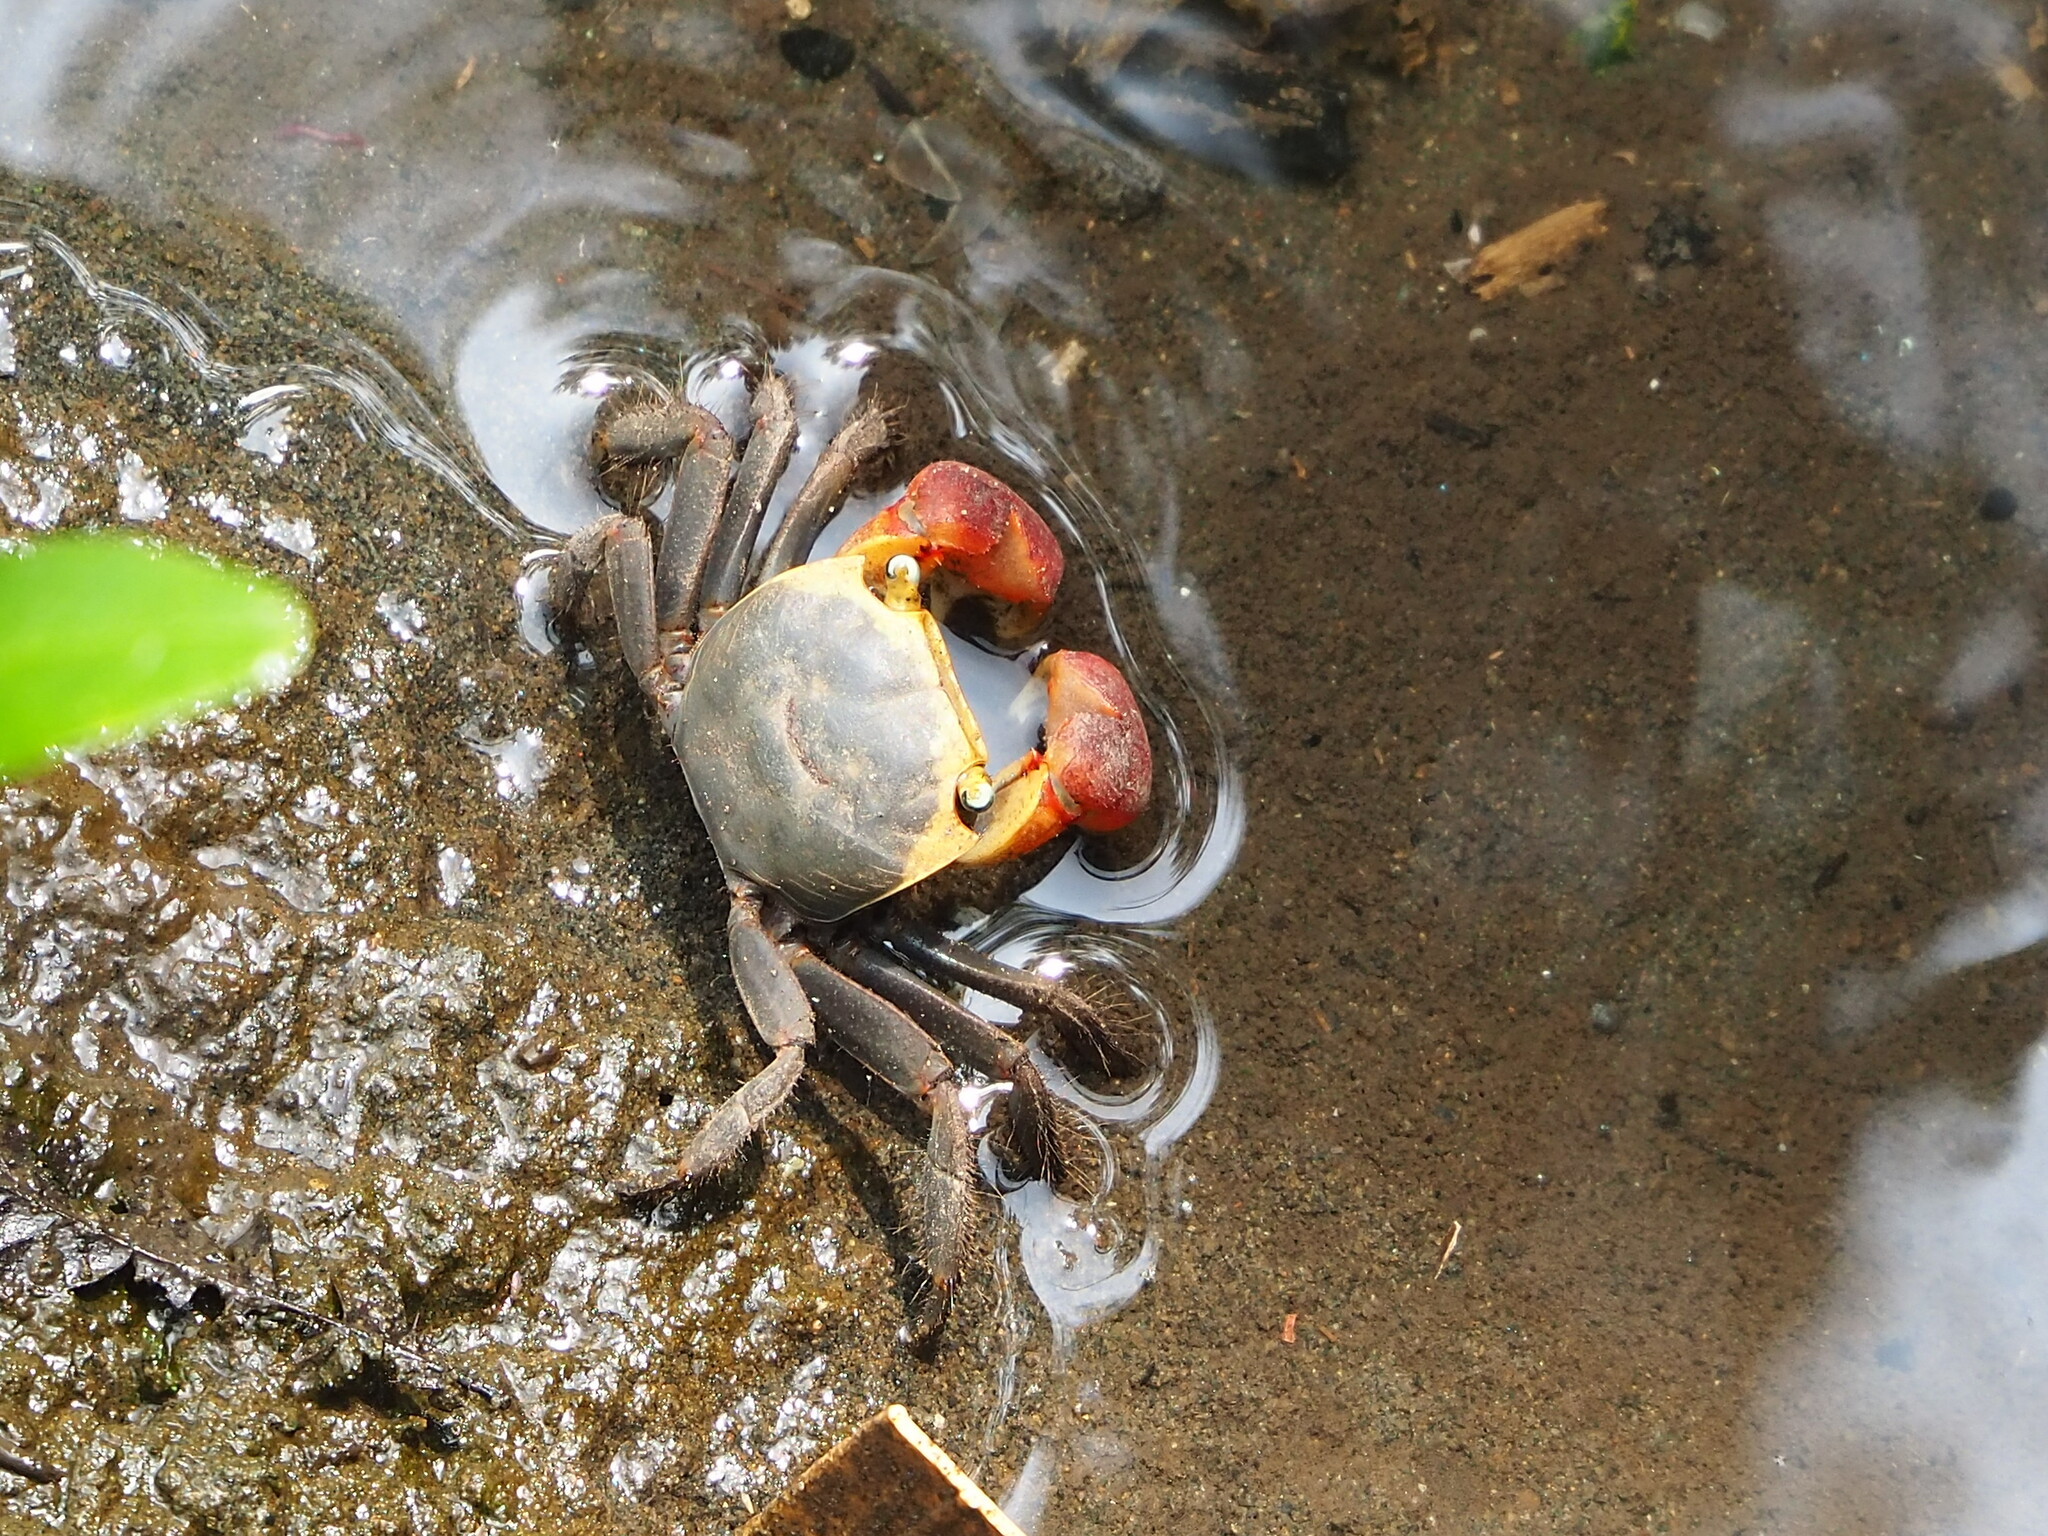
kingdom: Animalia
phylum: Arthropoda
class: Malacostraca
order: Decapoda
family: Sesarmidae
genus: Chiromantes
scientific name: Chiromantes haematocheir
